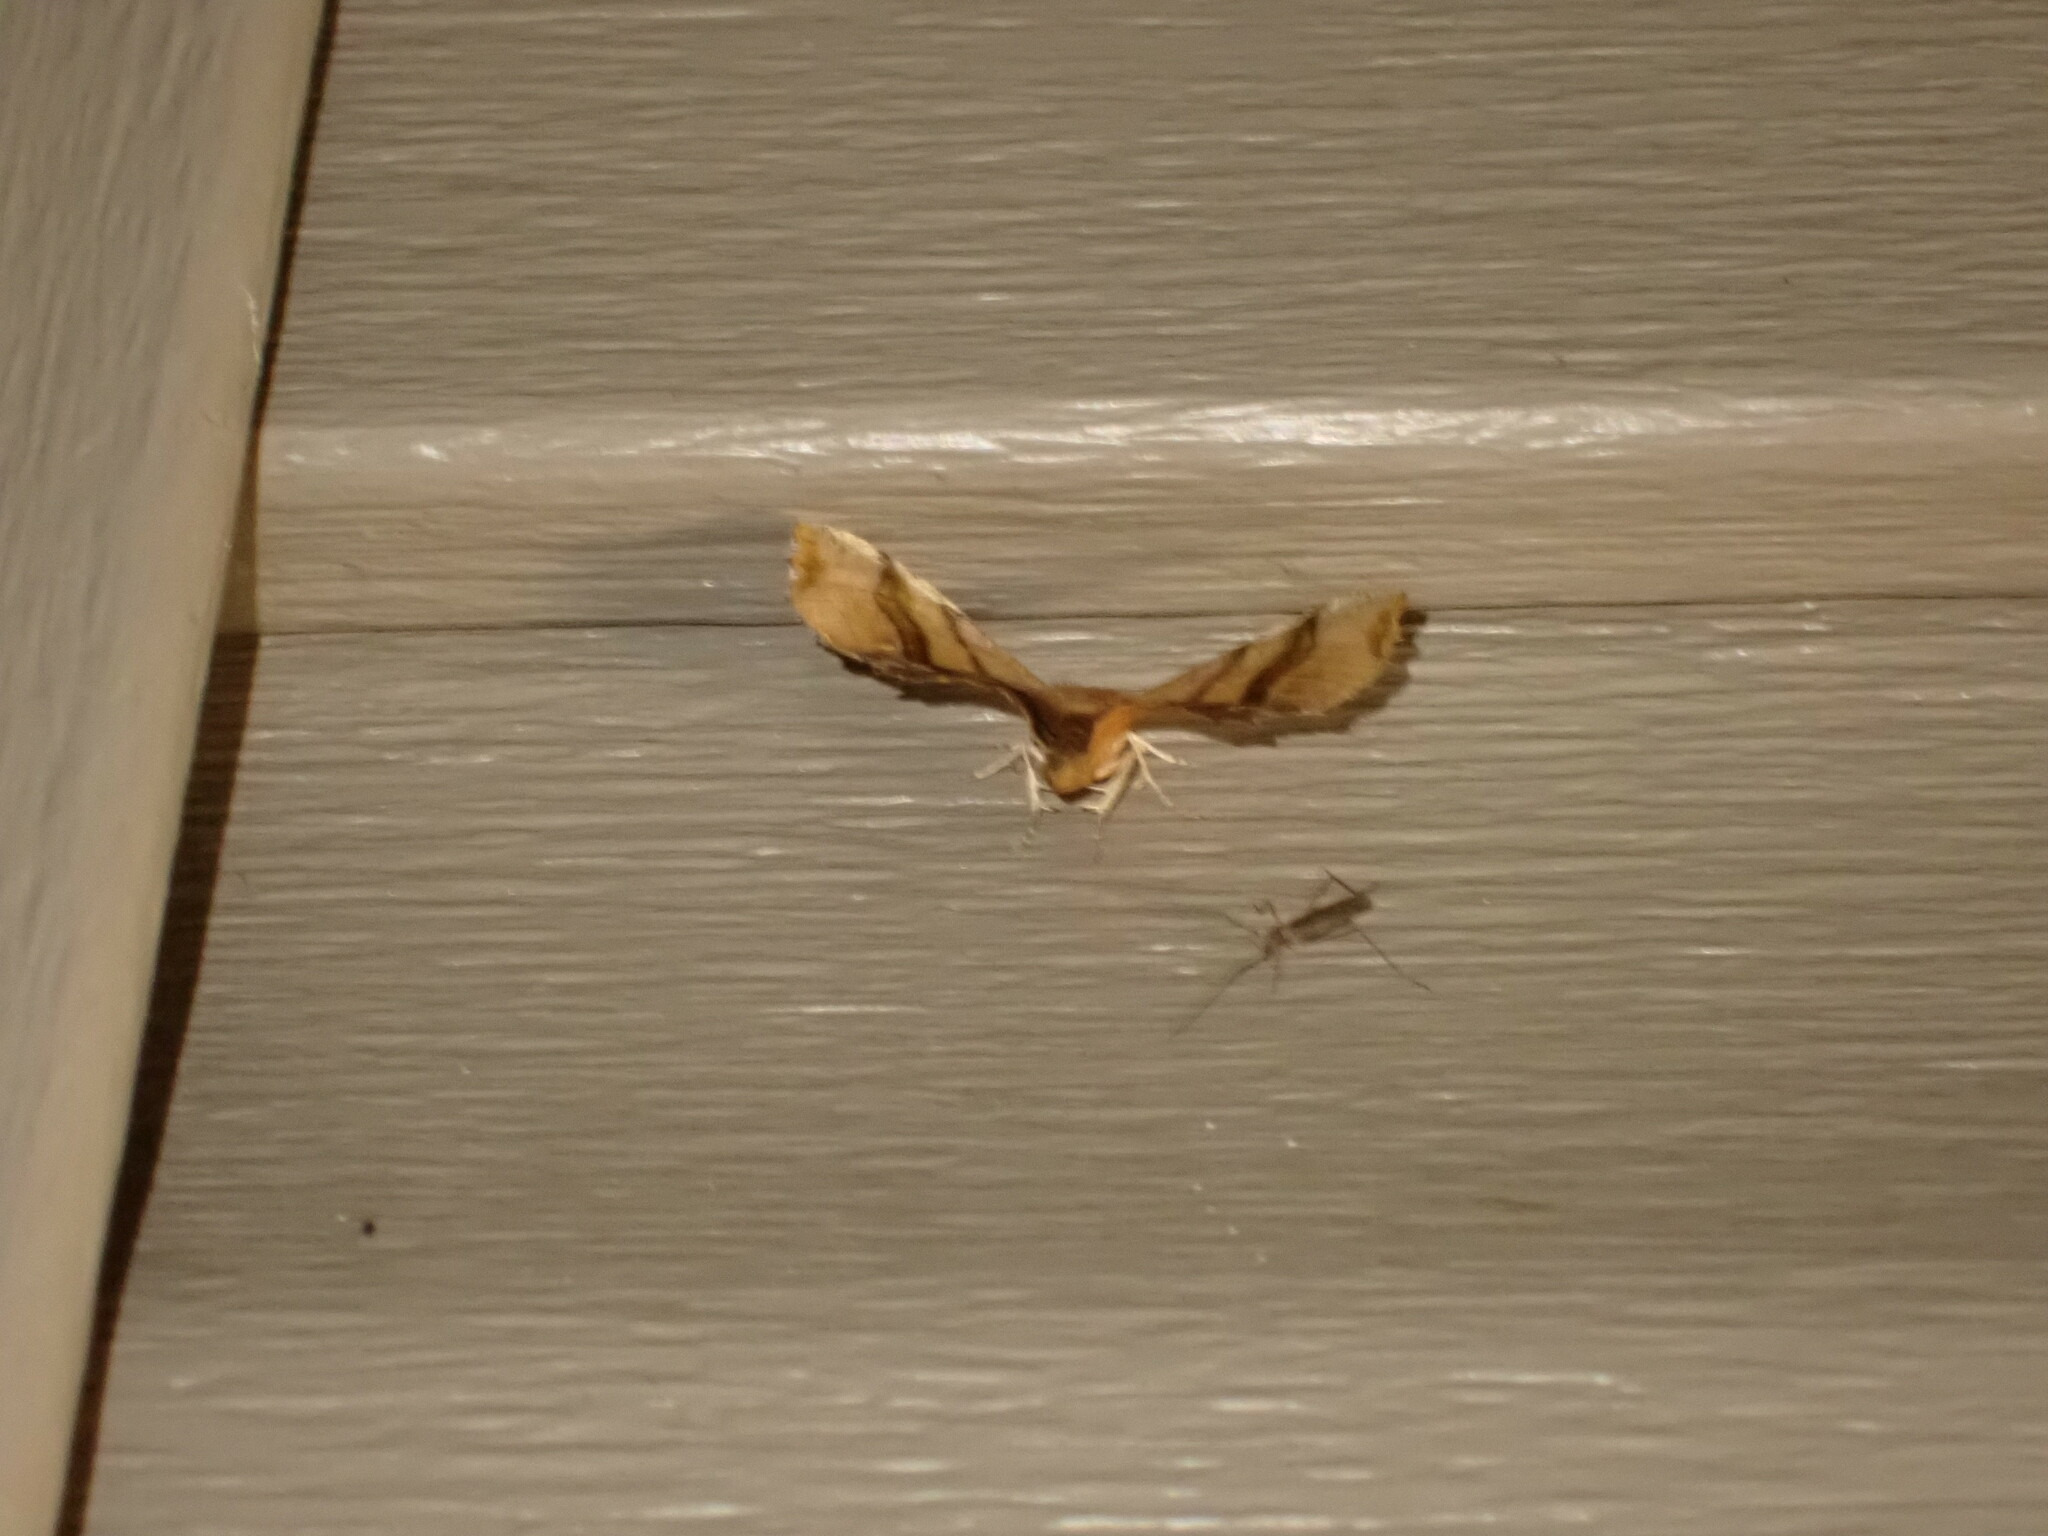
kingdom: Animalia
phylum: Arthropoda
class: Insecta
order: Lepidoptera
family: Geometridae
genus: Cepphis
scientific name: Cepphis armataria
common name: Scallop moth
